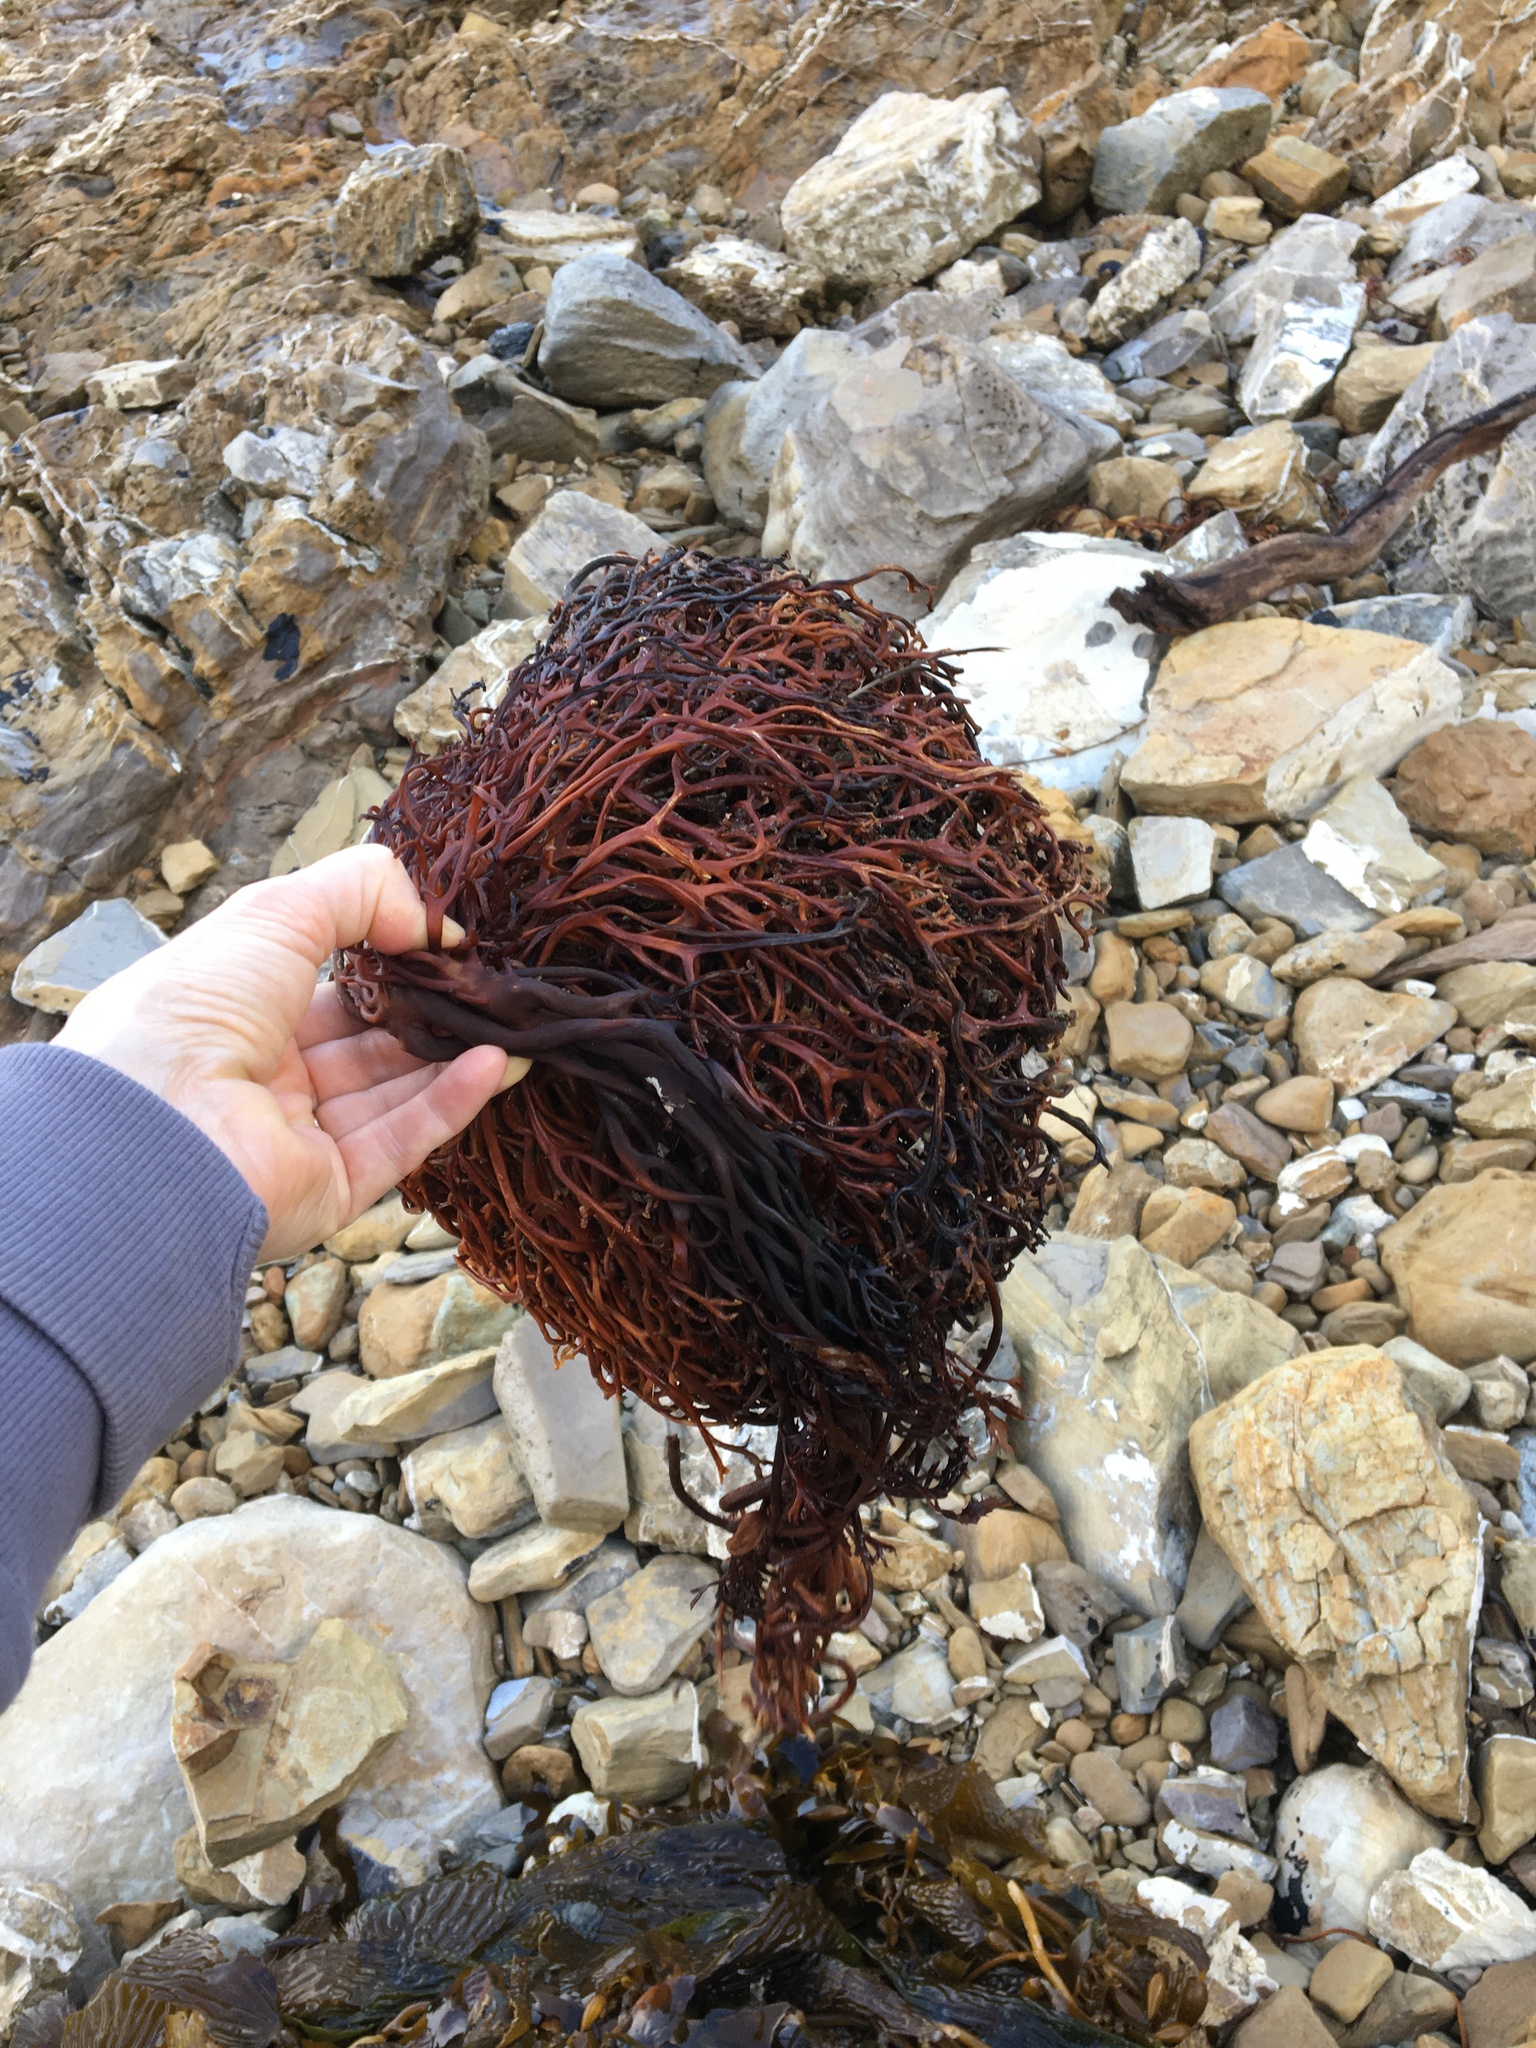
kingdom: Chromista
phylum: Ochrophyta
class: Phaeophyceae
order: Laminariales
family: Laminariaceae
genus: Macrocystis
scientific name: Macrocystis pyrifera
